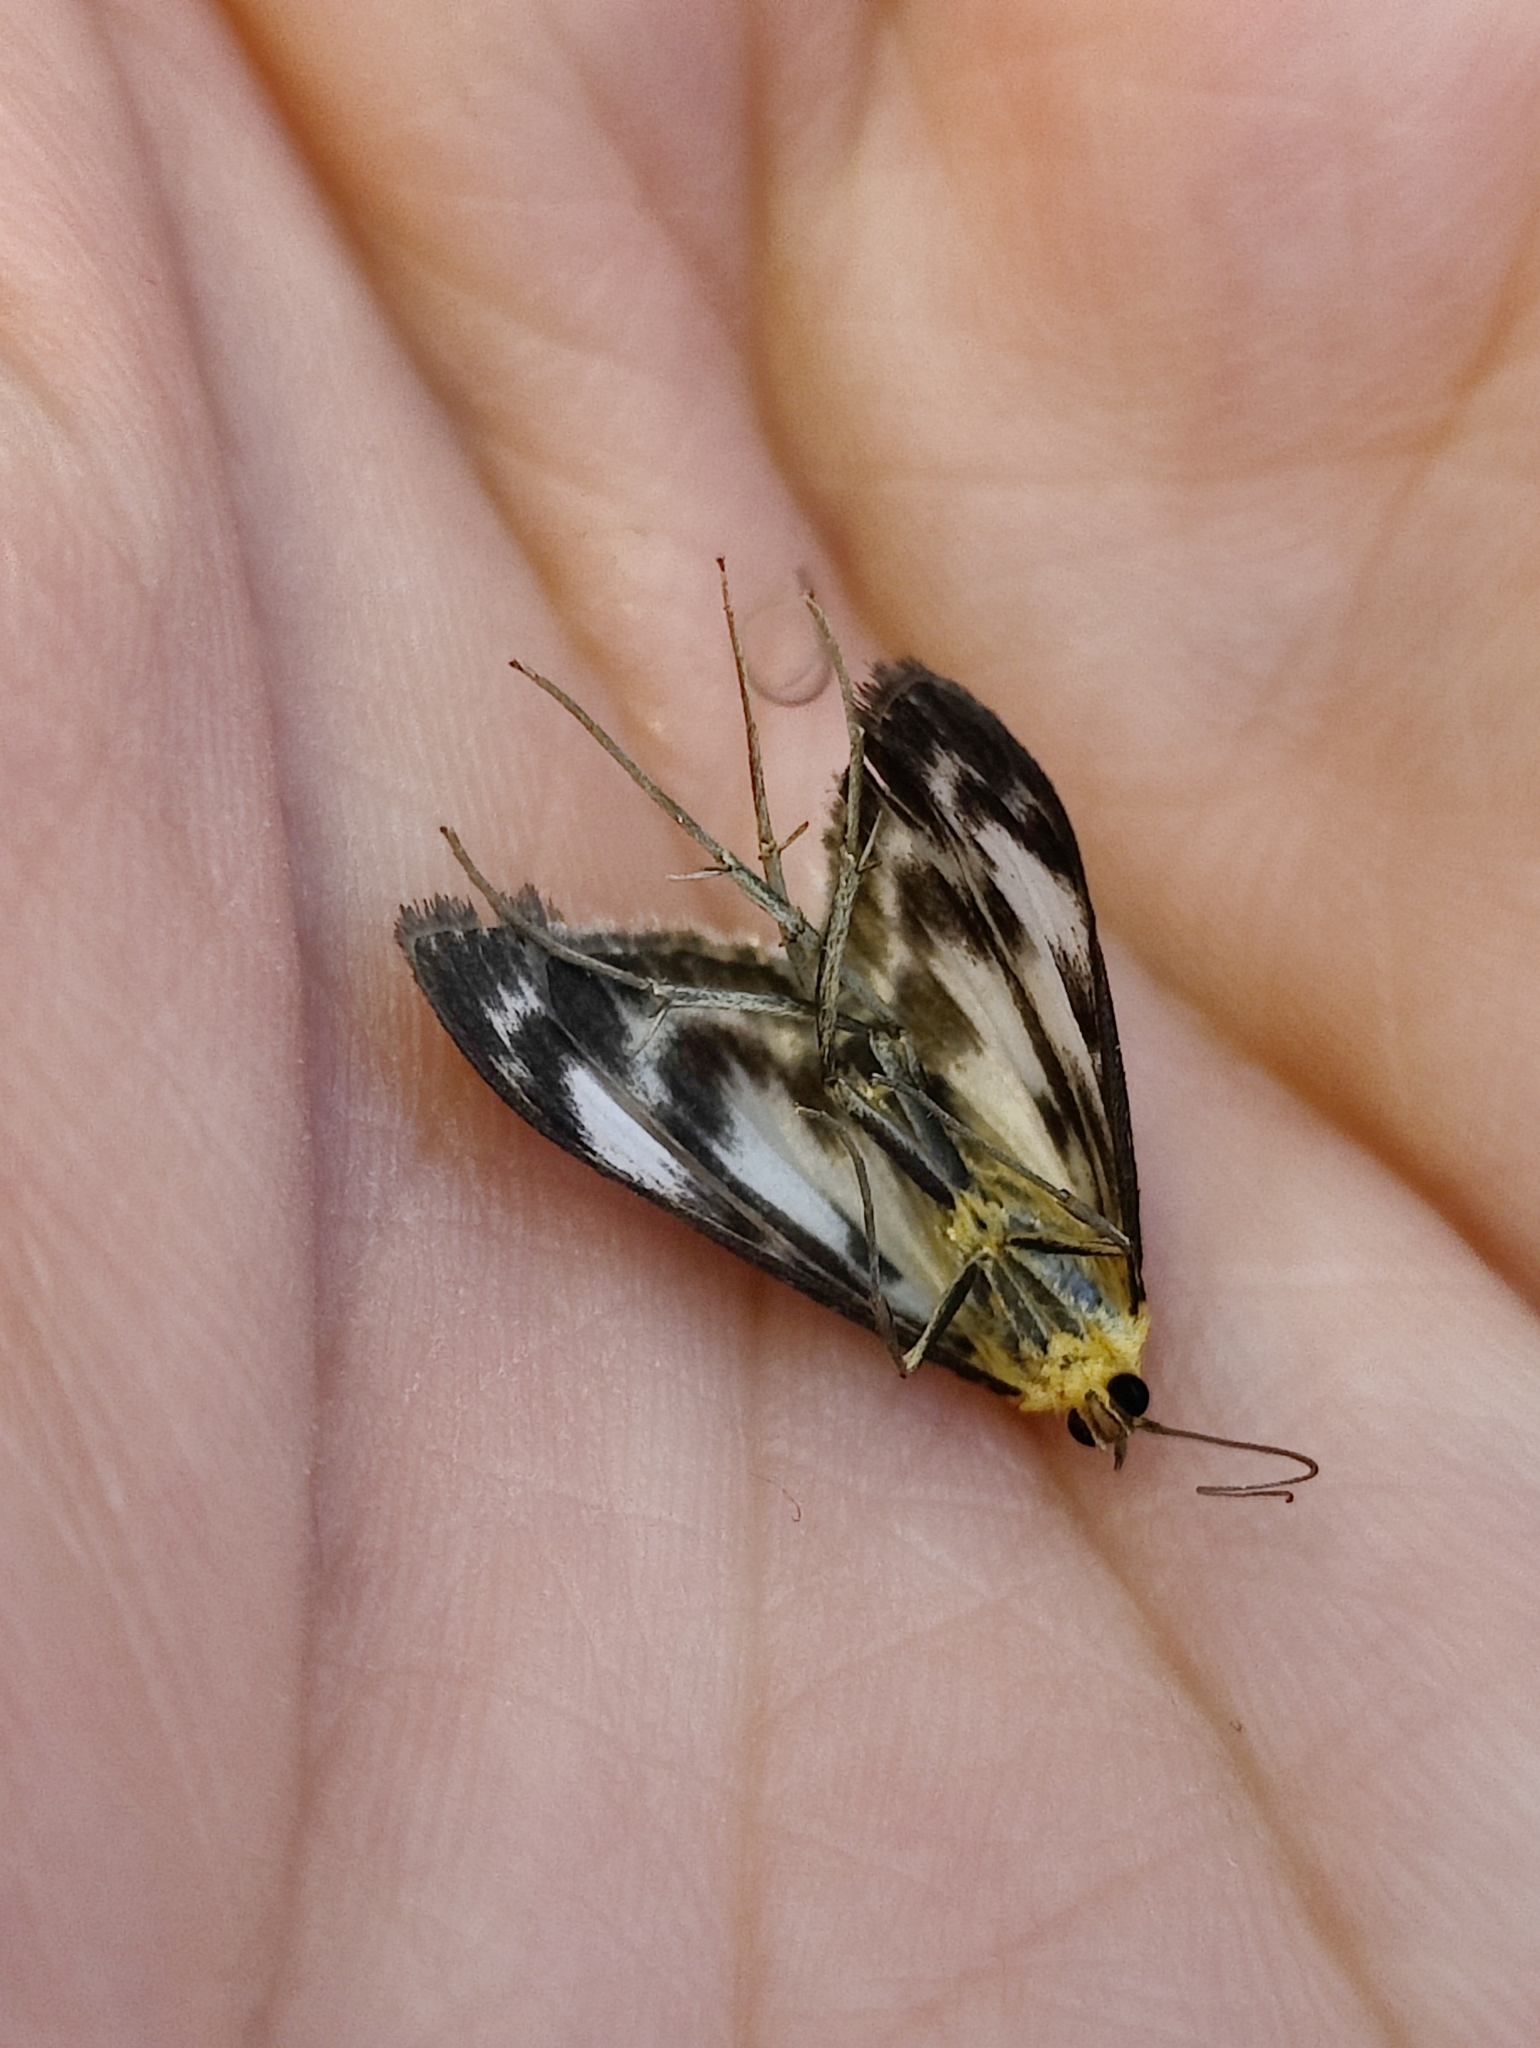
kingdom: Animalia
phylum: Arthropoda
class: Insecta
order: Lepidoptera
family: Crambidae
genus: Anania
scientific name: Anania hortulata
